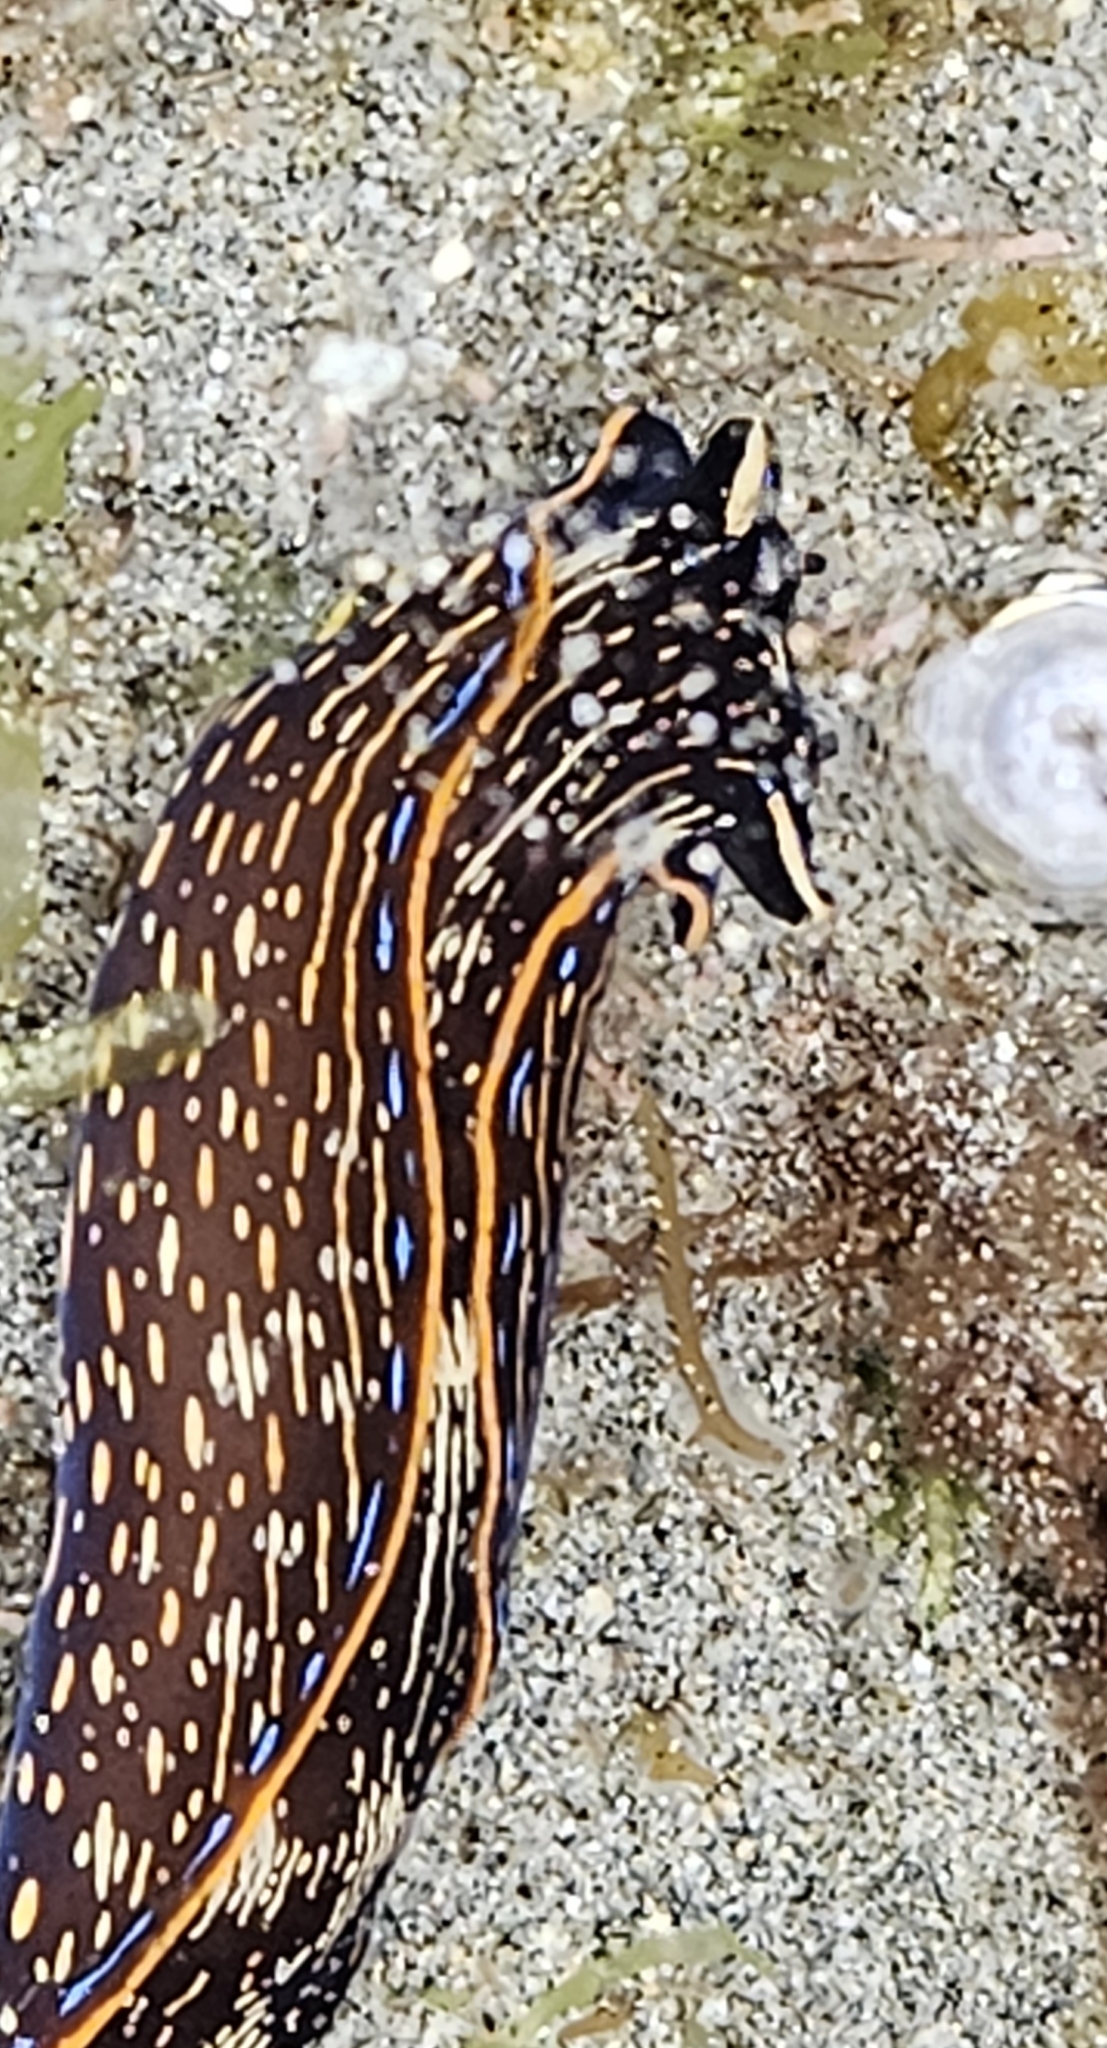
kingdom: Animalia
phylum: Mollusca
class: Gastropoda
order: Cephalaspidea
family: Aglajidae
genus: Navanax
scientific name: Navanax inermis
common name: California aglaja
